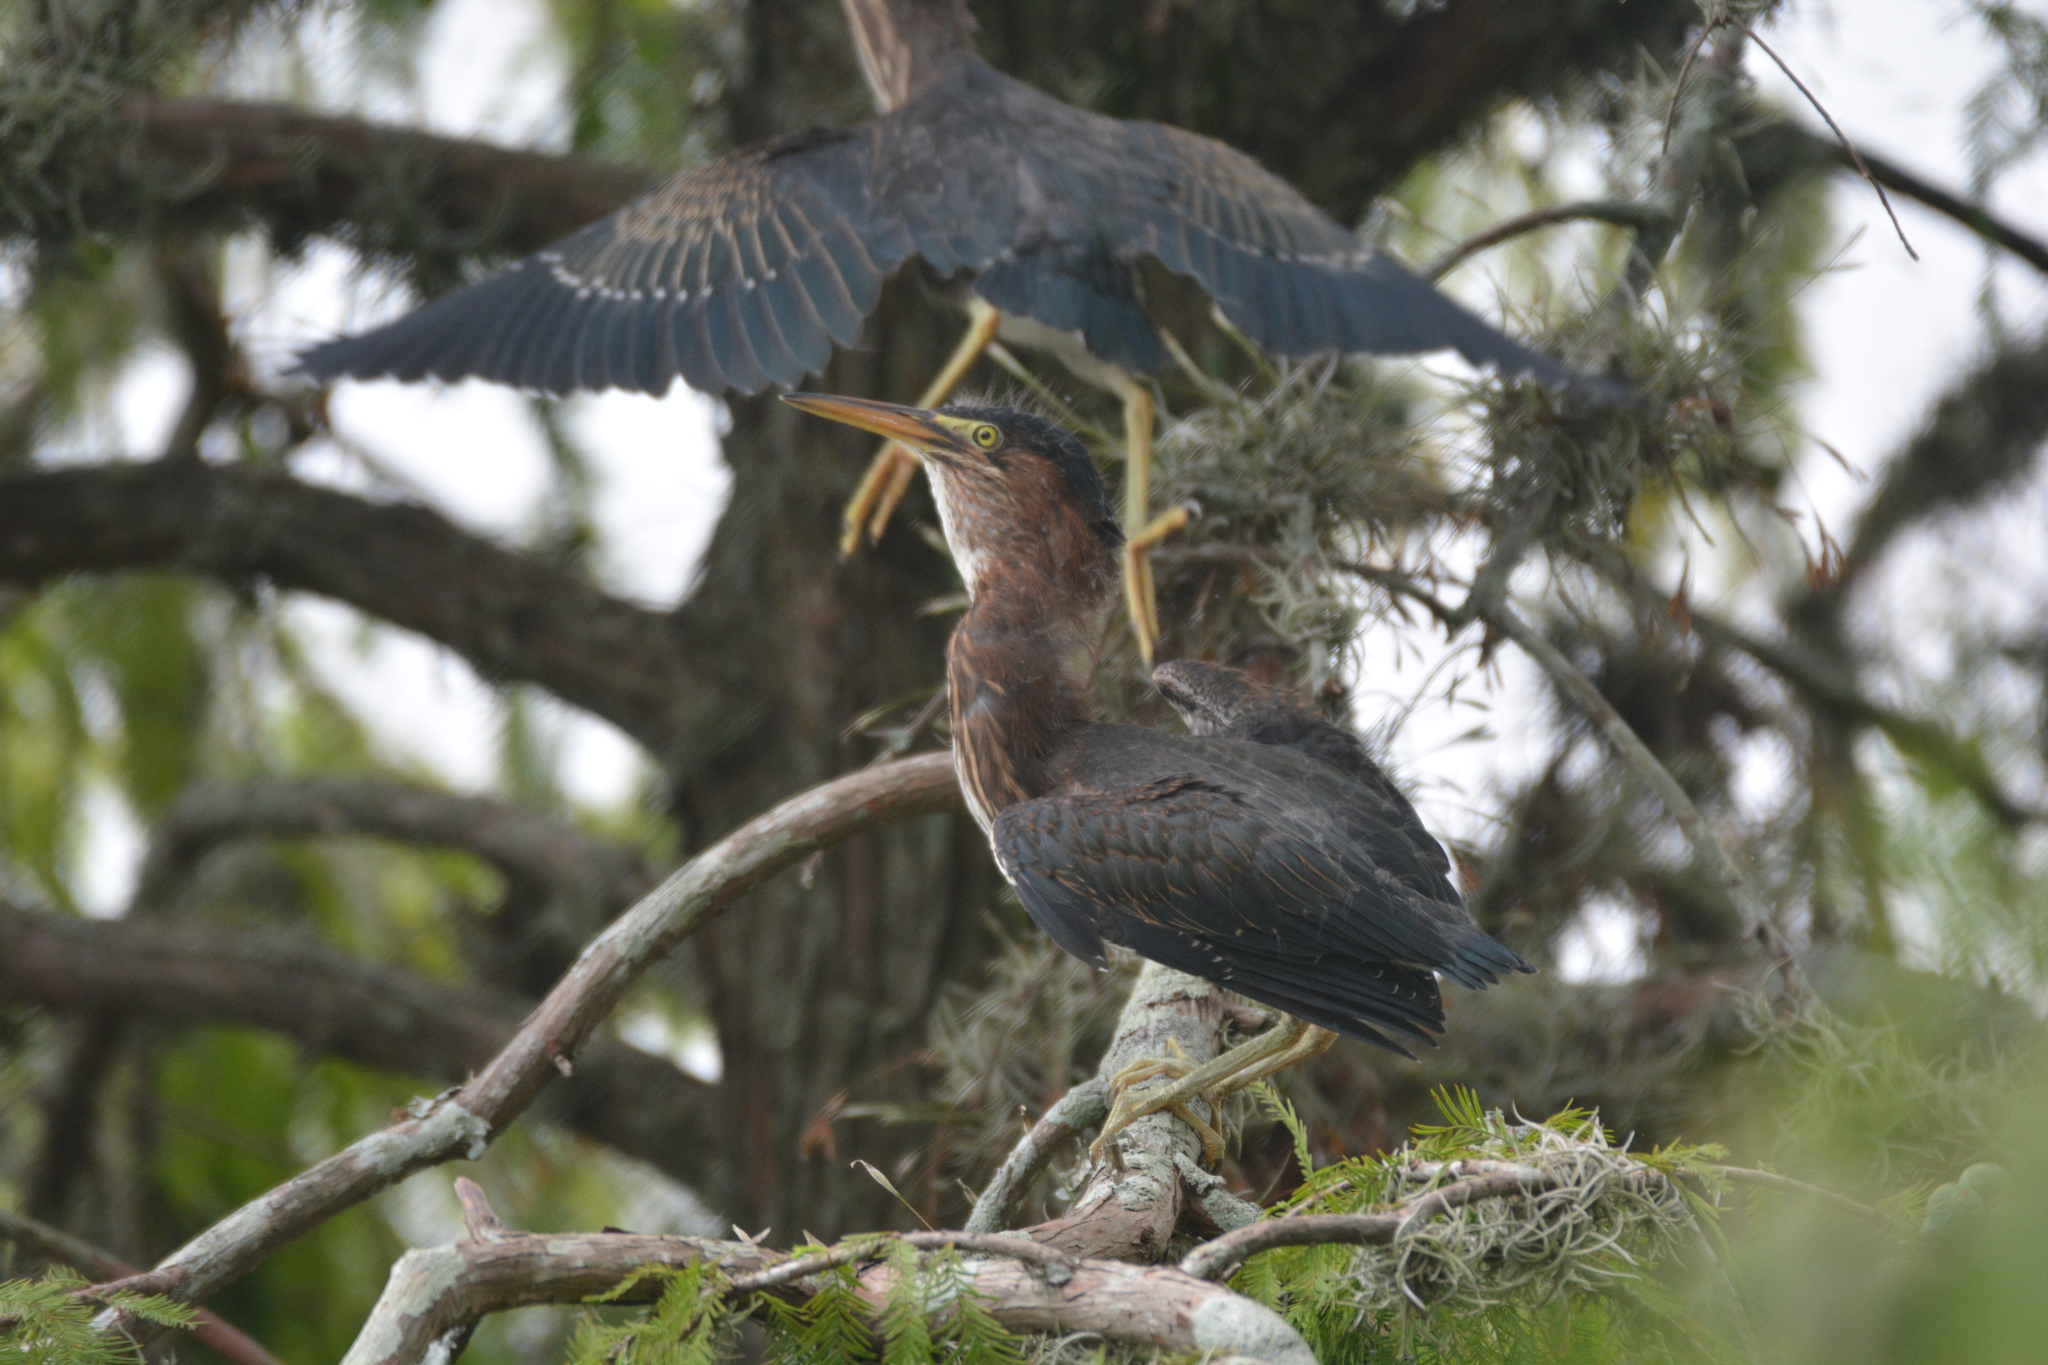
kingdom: Animalia
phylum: Chordata
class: Aves
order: Pelecaniformes
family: Ardeidae
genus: Butorides
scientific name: Butorides virescens
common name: Green heron
